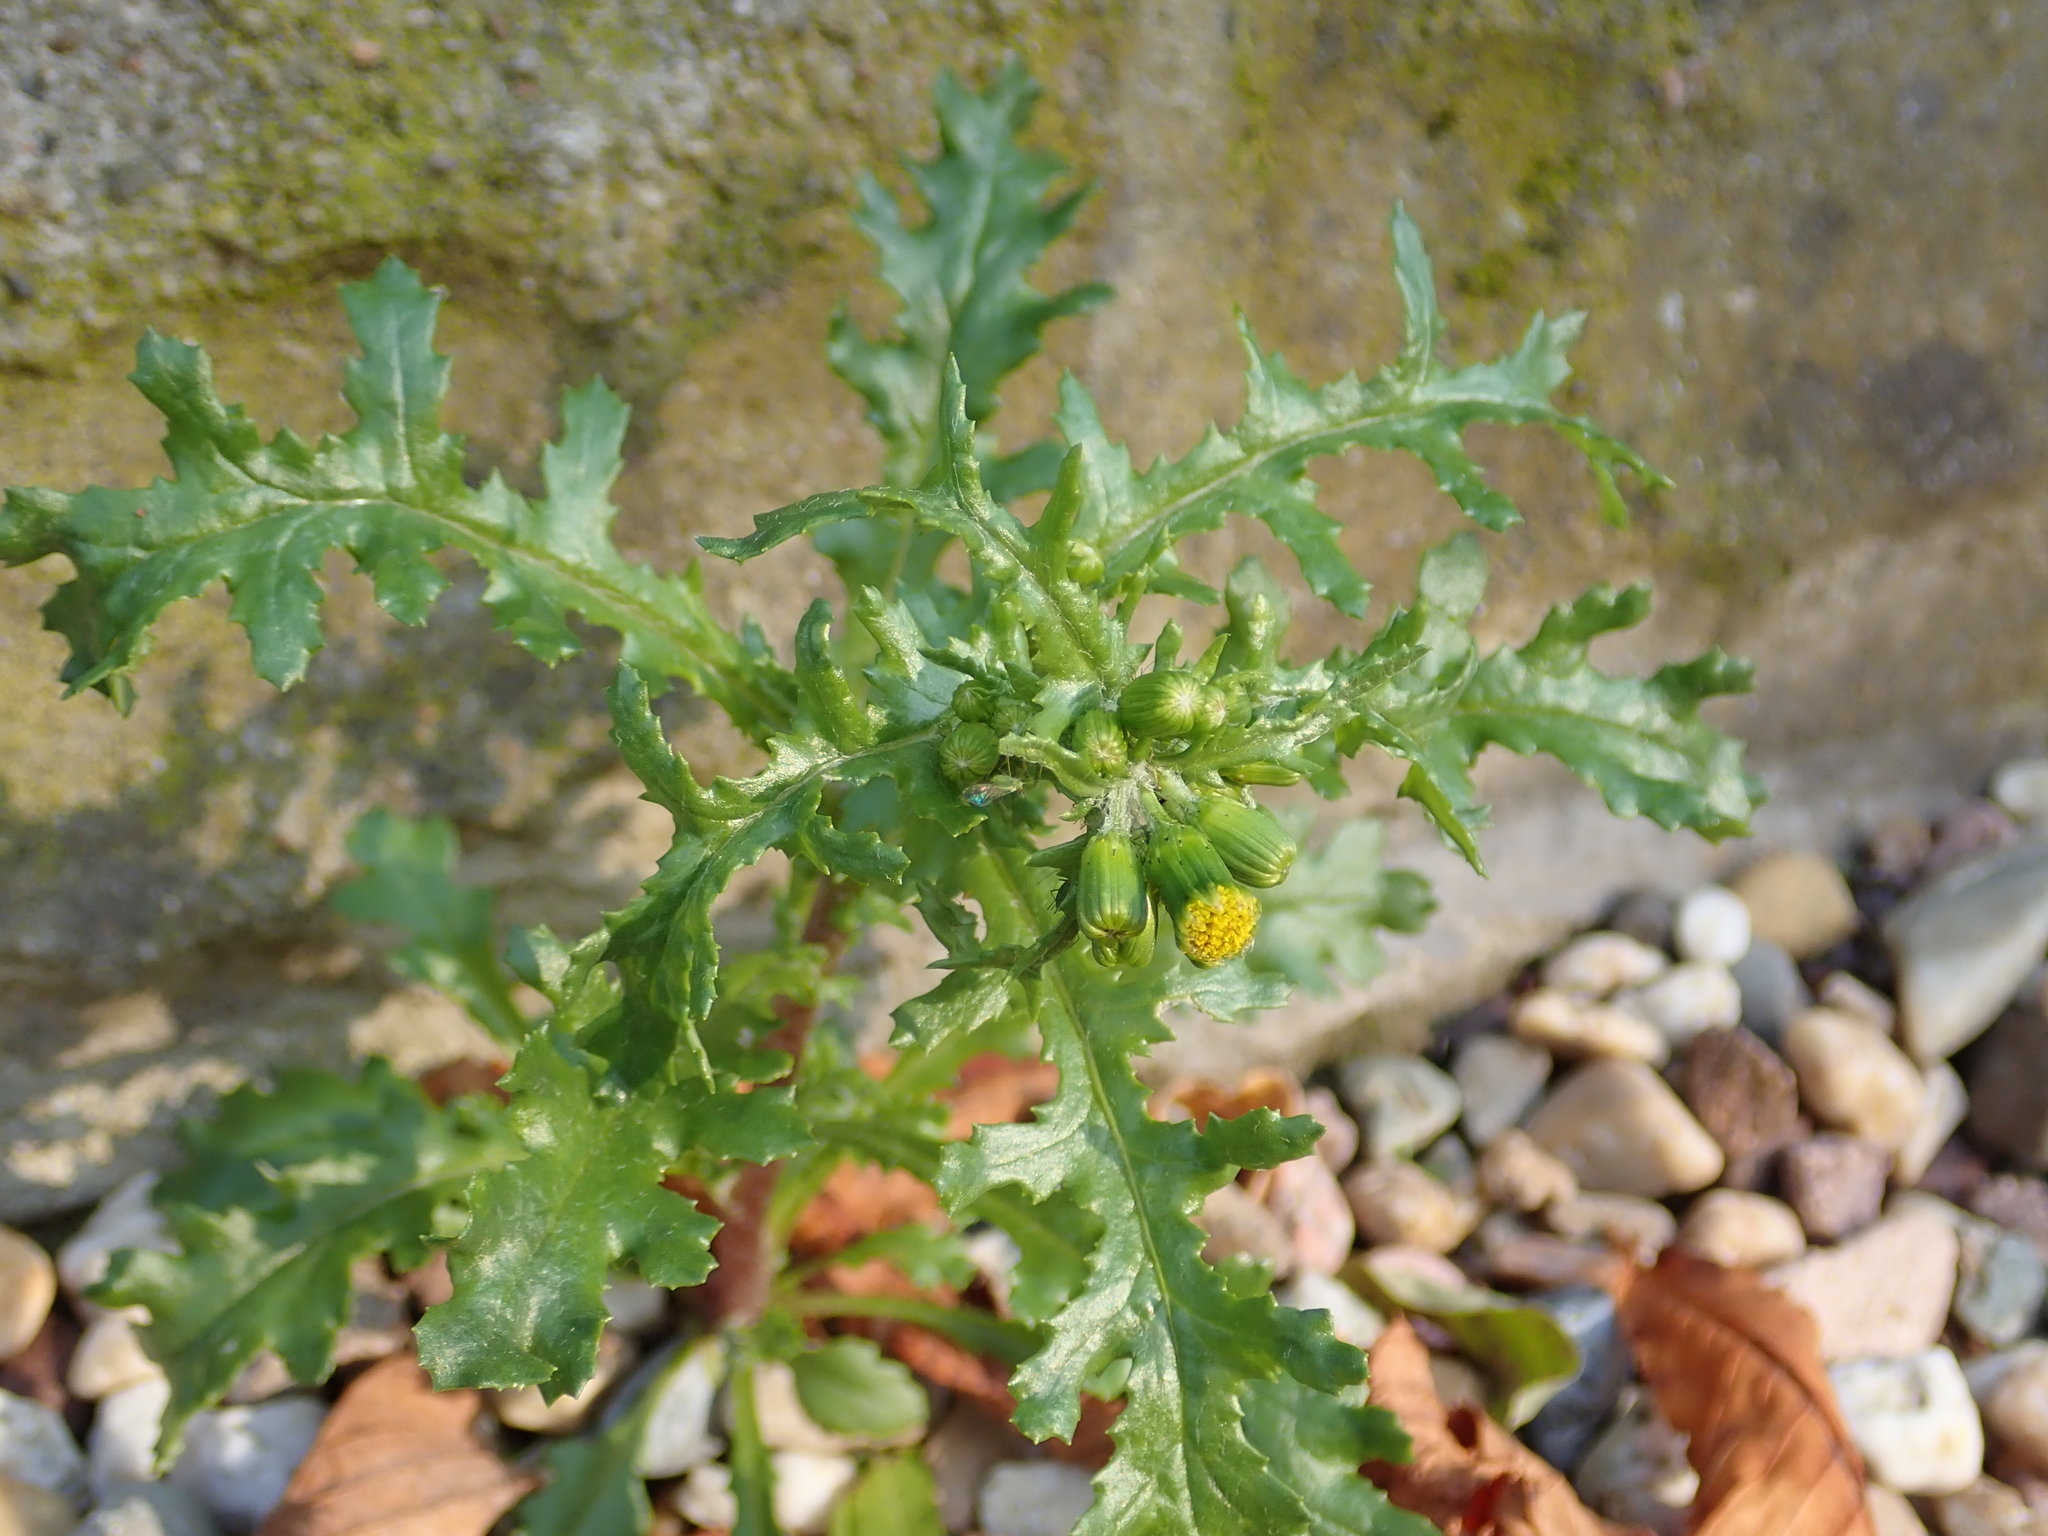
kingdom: Plantae
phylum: Tracheophyta
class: Magnoliopsida
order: Asterales
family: Asteraceae
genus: Senecio
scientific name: Senecio vulgaris
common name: Old-man-in-the-spring
